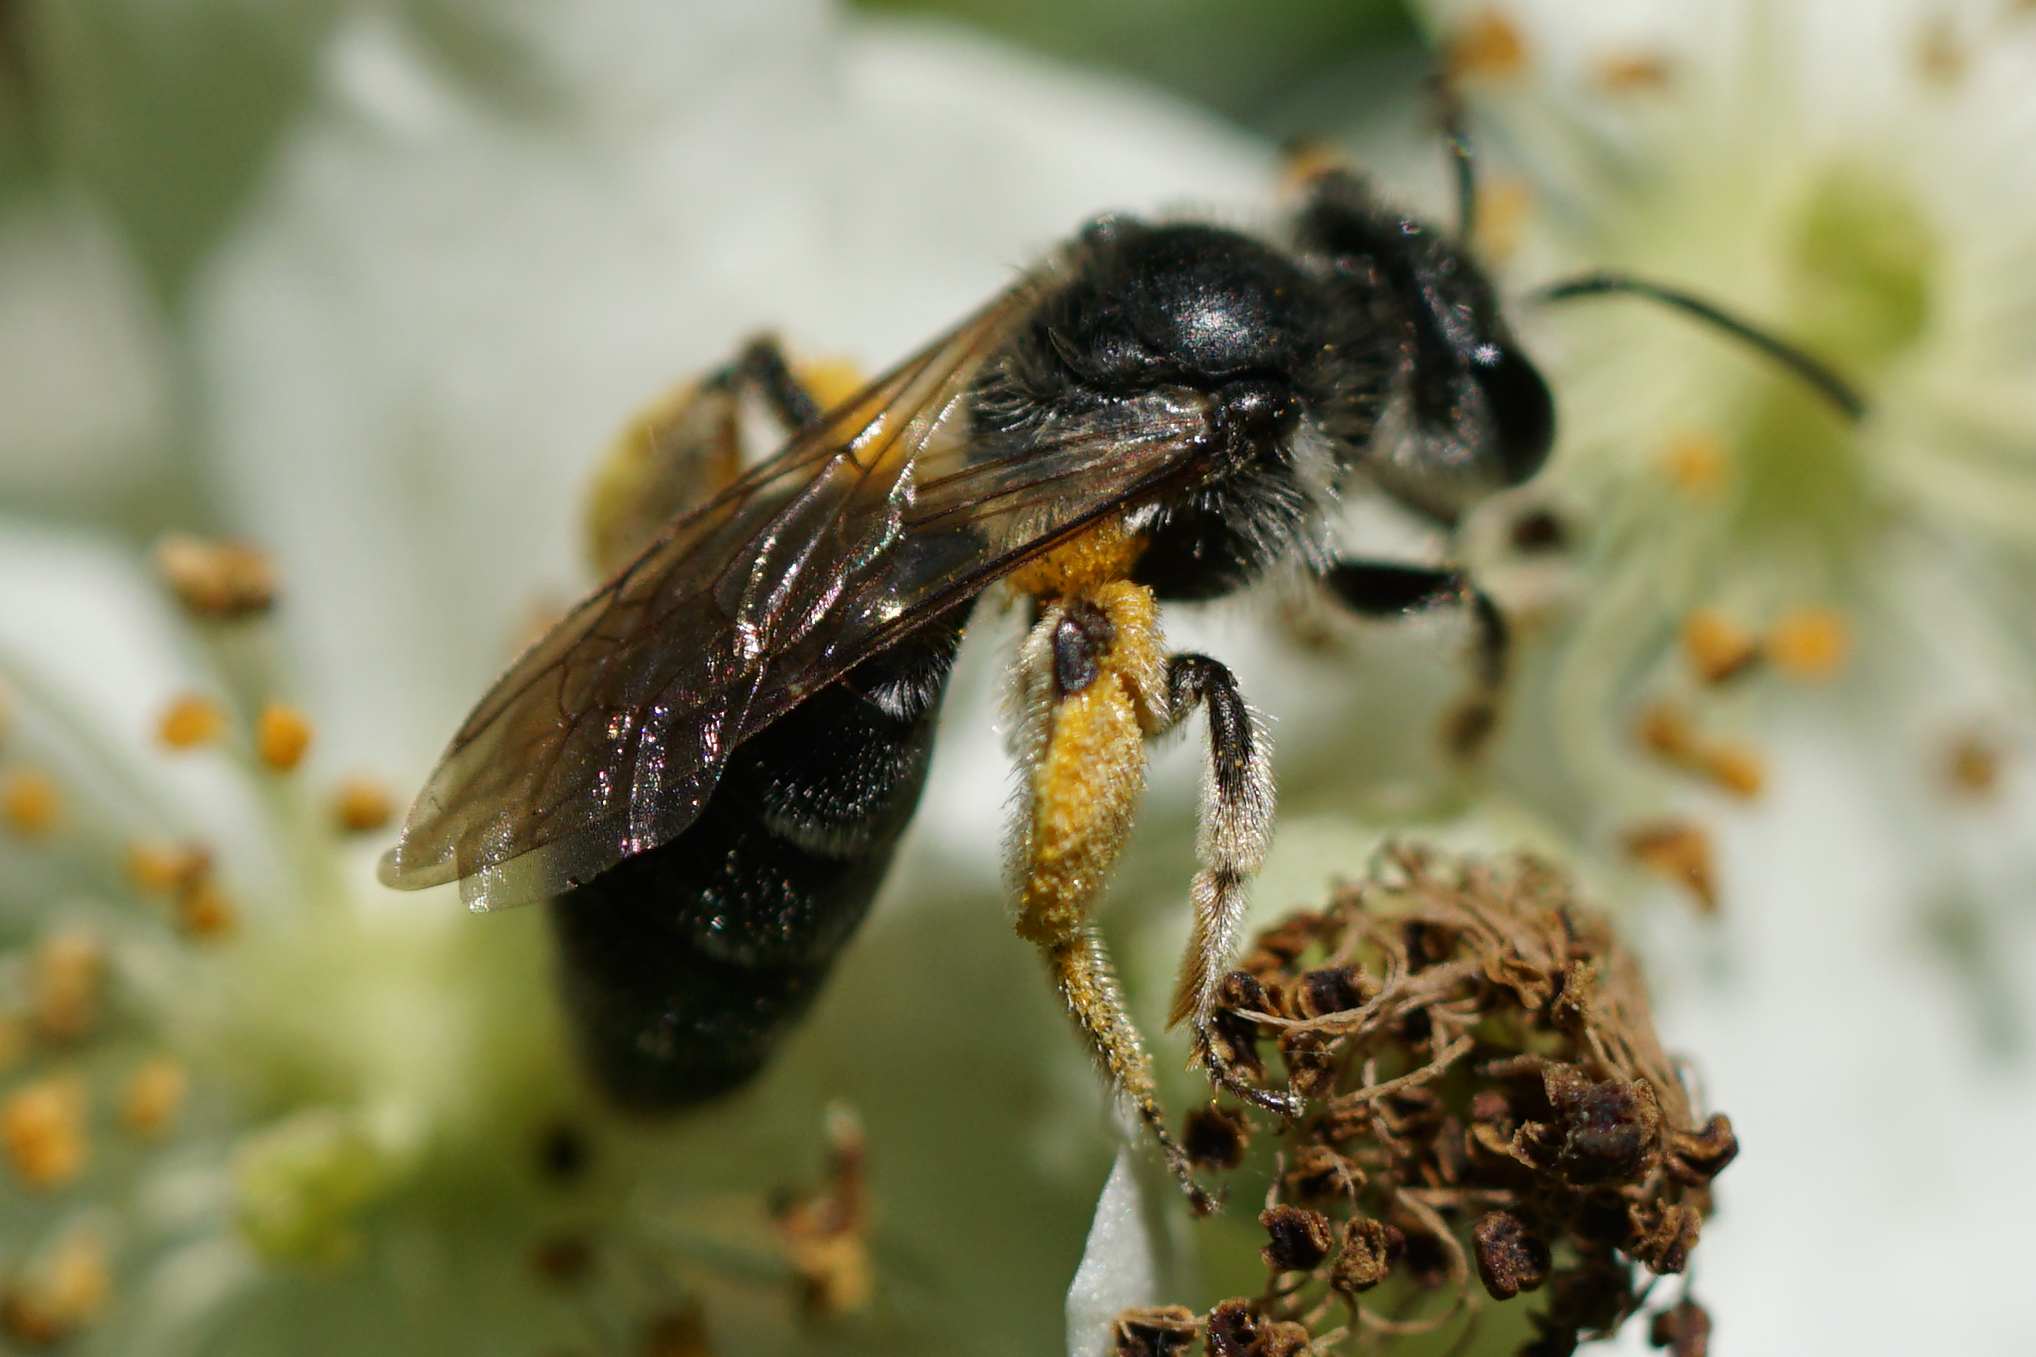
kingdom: Animalia
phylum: Arthropoda
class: Insecta
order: Hymenoptera
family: Andrenidae
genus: Andrena
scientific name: Andrena
